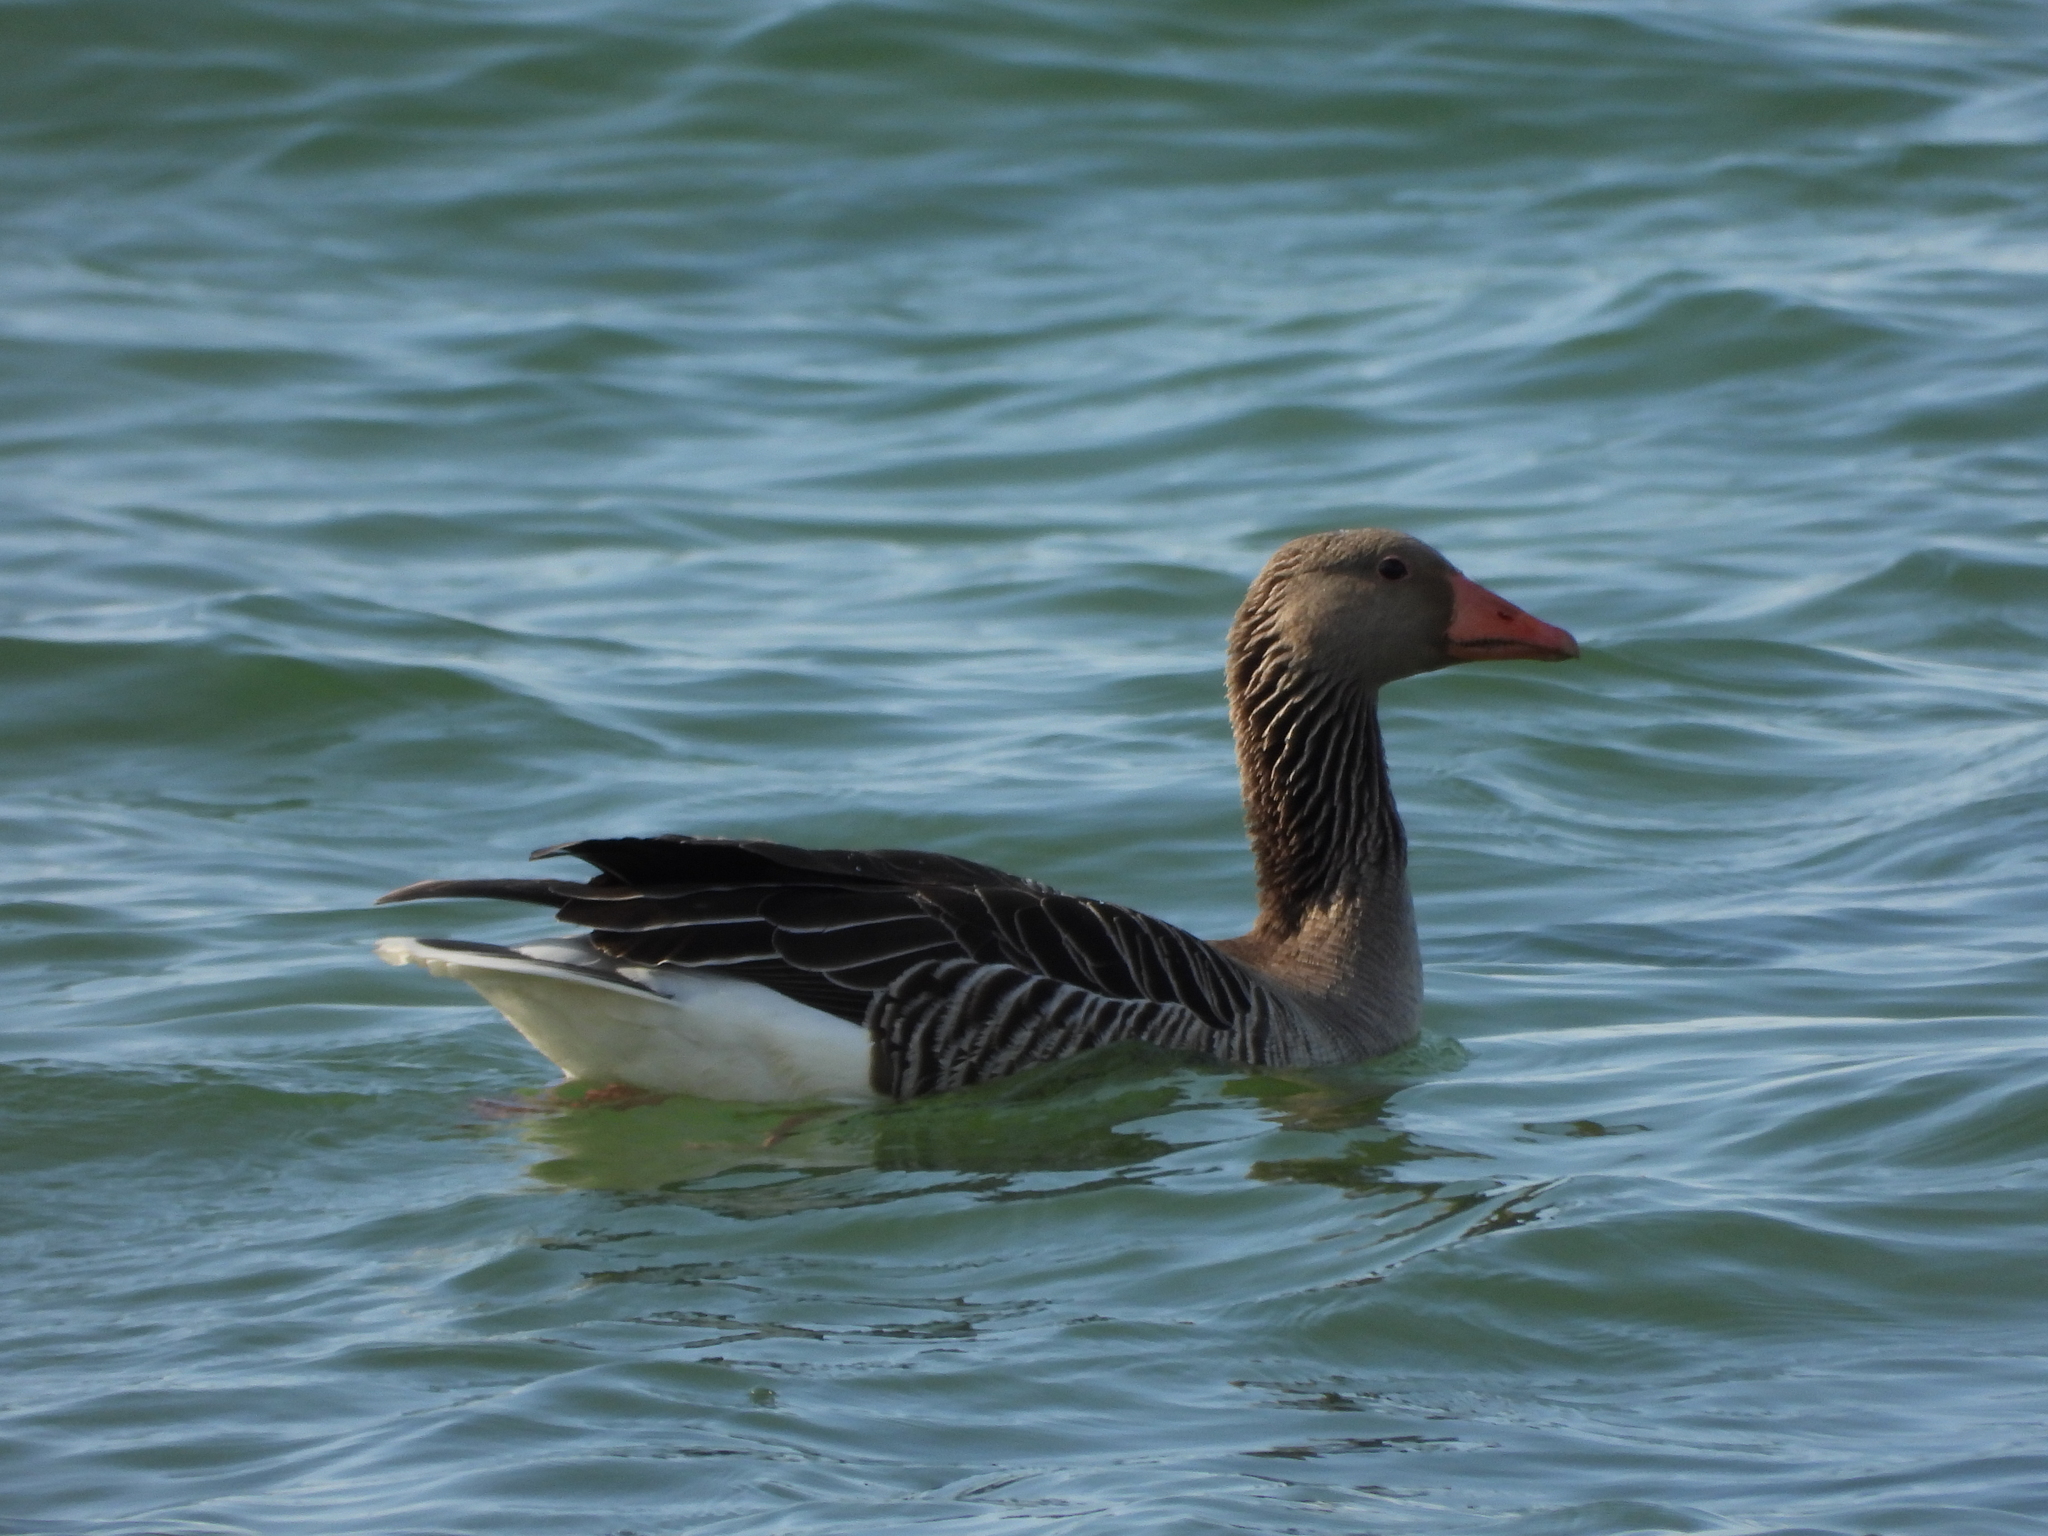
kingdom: Animalia
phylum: Chordata
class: Aves
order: Anseriformes
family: Anatidae
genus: Anser
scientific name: Anser anser
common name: Greylag goose
